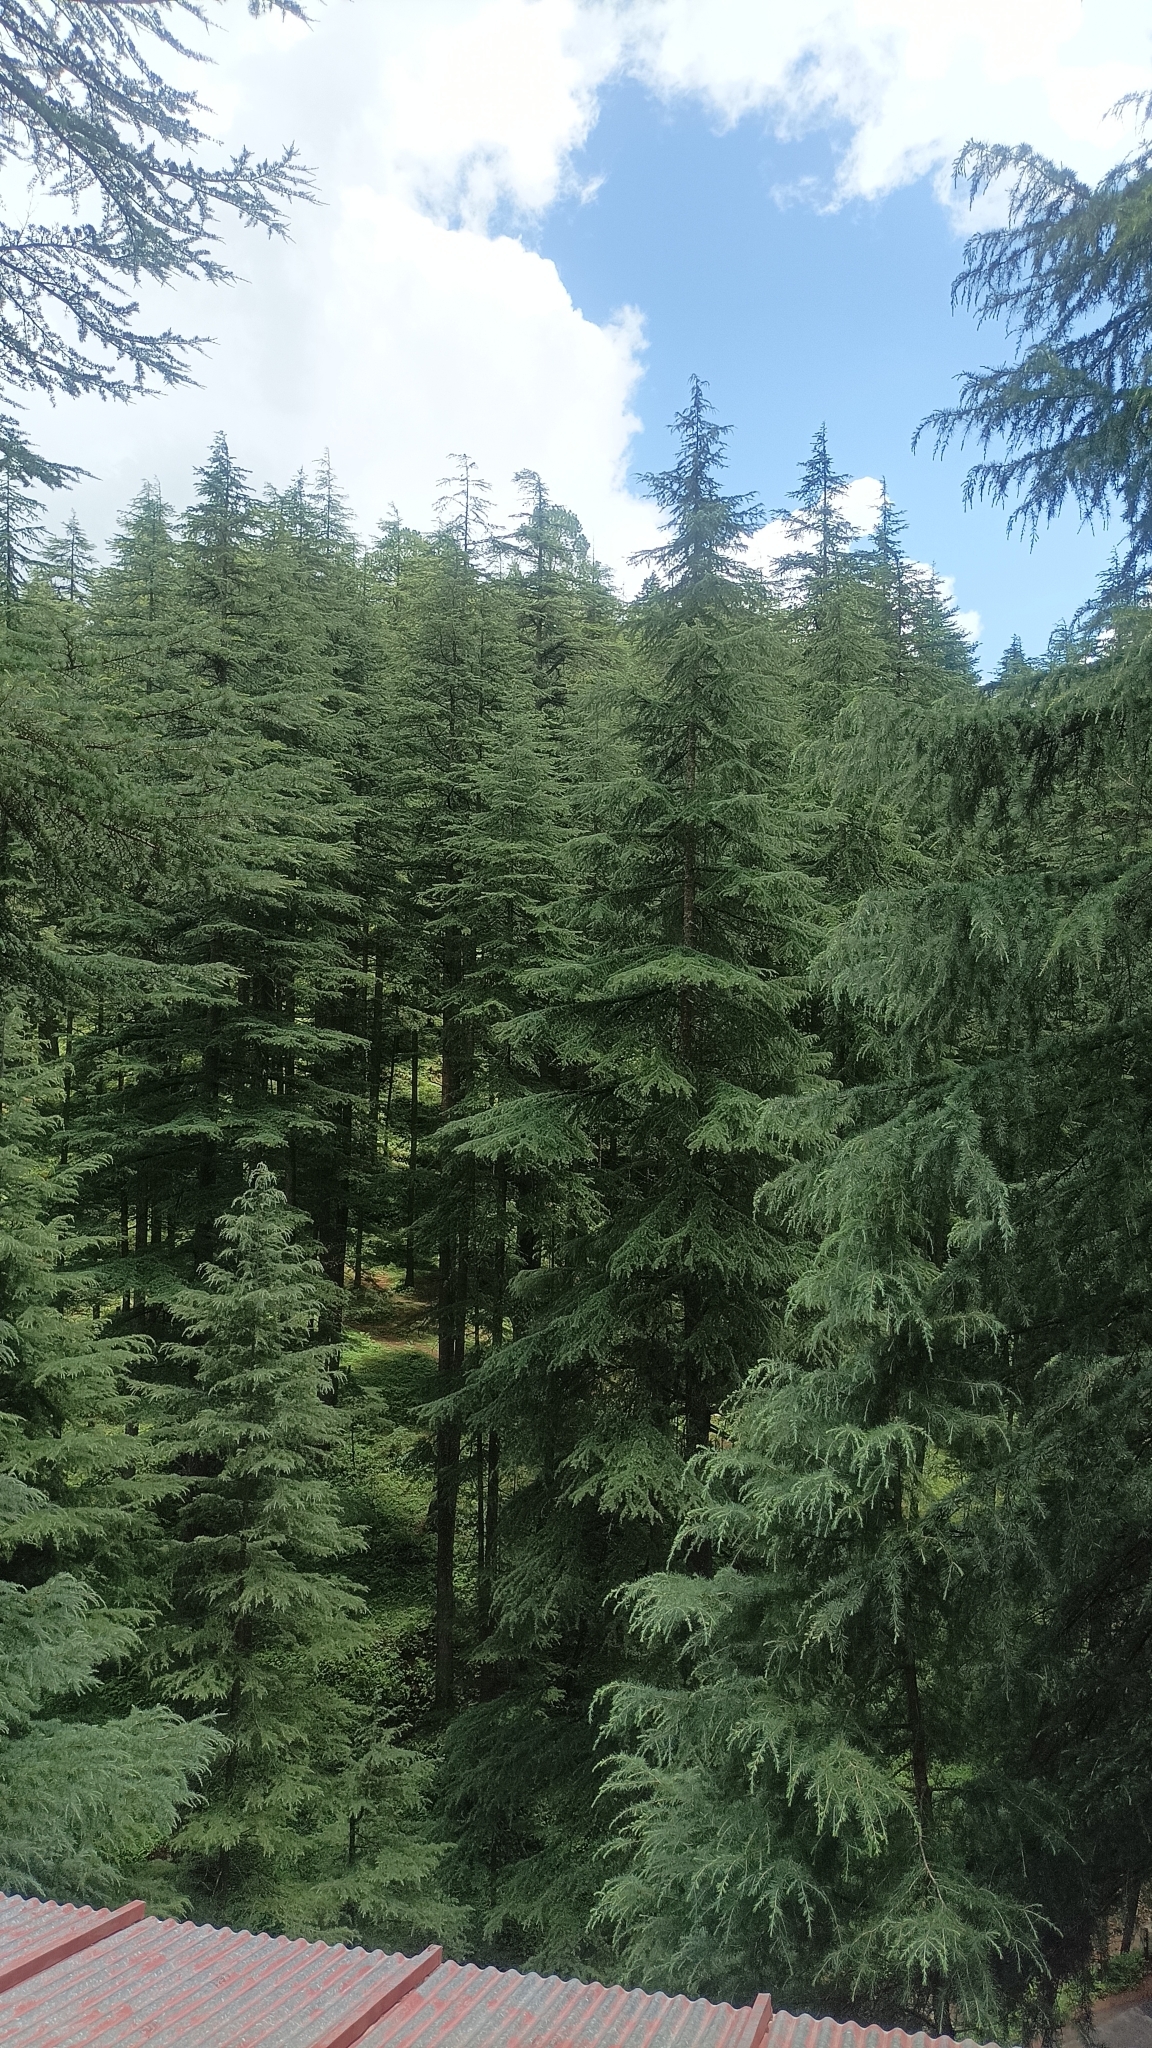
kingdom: Plantae
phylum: Tracheophyta
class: Pinopsida
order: Pinales
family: Pinaceae
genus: Cedrus
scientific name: Cedrus deodara
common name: Deodar
